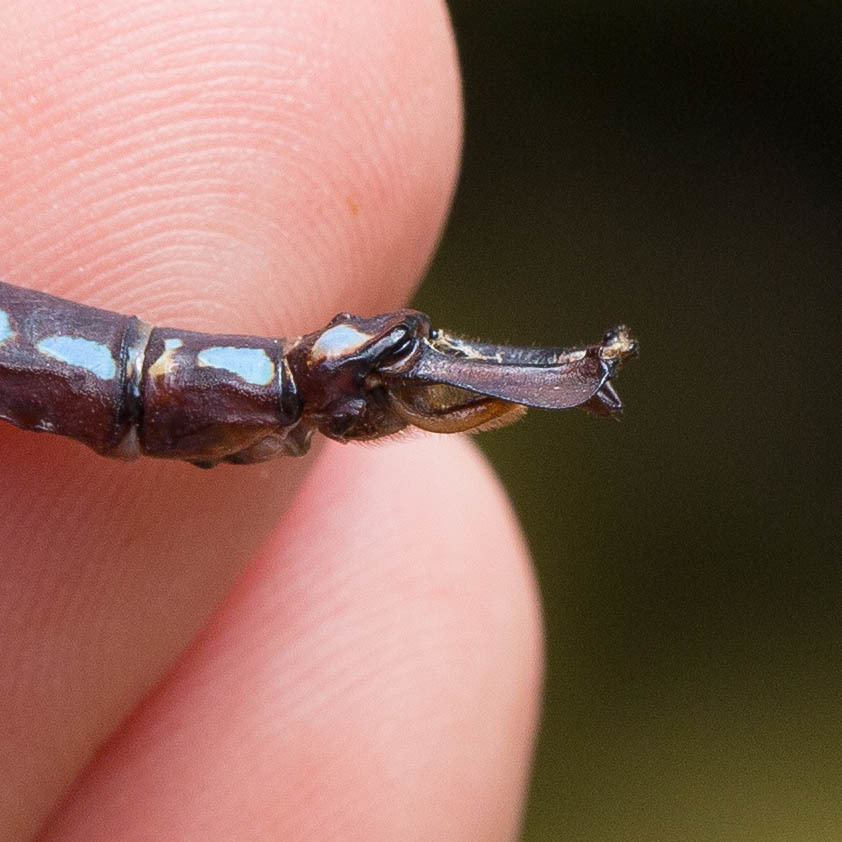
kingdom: Animalia
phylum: Arthropoda
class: Insecta
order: Odonata
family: Aeshnidae
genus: Anax
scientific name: Anax walsinghami
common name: Giant darner
